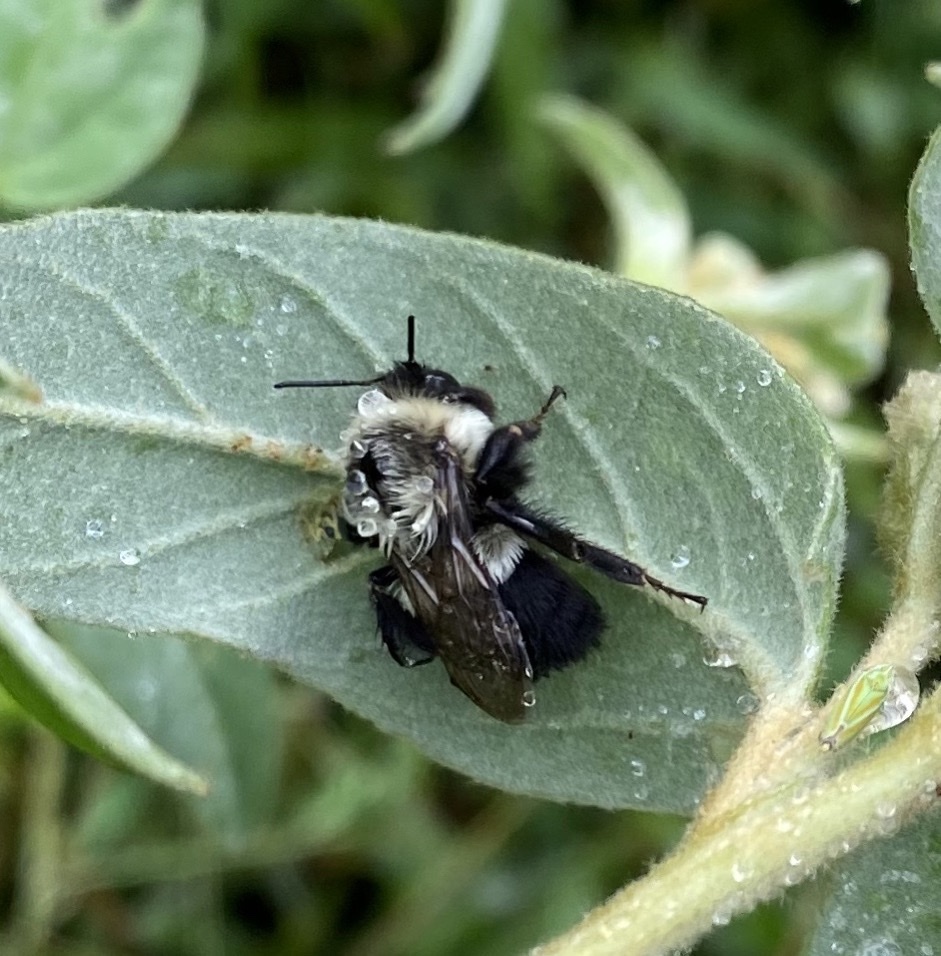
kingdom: Animalia
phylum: Arthropoda
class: Insecta
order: Hymenoptera
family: Apidae
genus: Bombus
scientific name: Bombus impatiens
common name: Common eastern bumble bee
